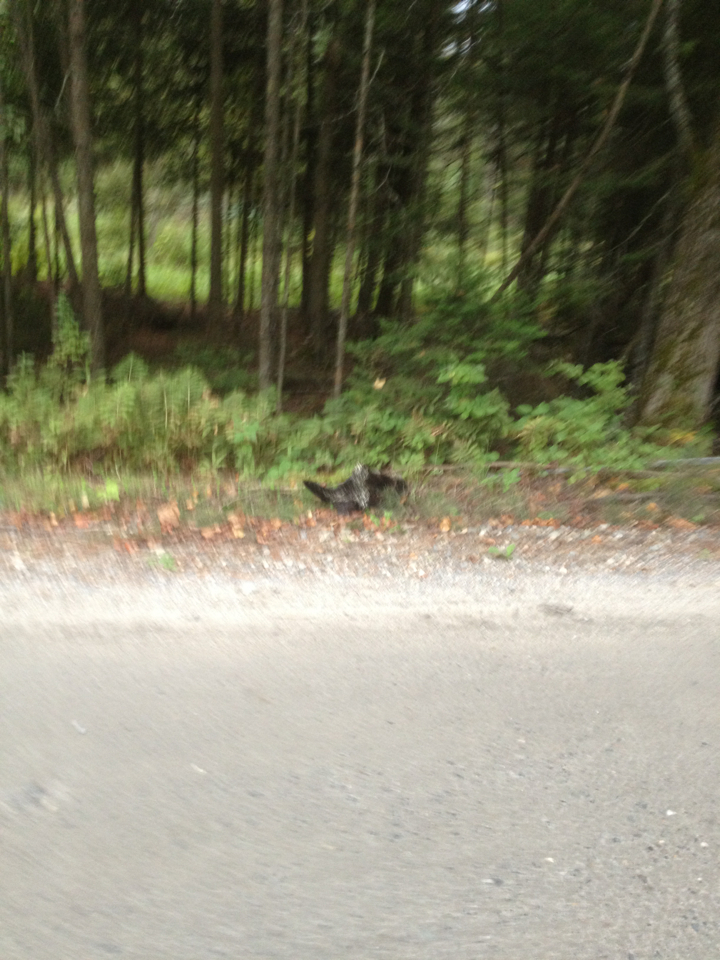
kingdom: Animalia
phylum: Chordata
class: Mammalia
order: Rodentia
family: Erethizontidae
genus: Erethizon
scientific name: Erethizon dorsatus
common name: North american porcupine
